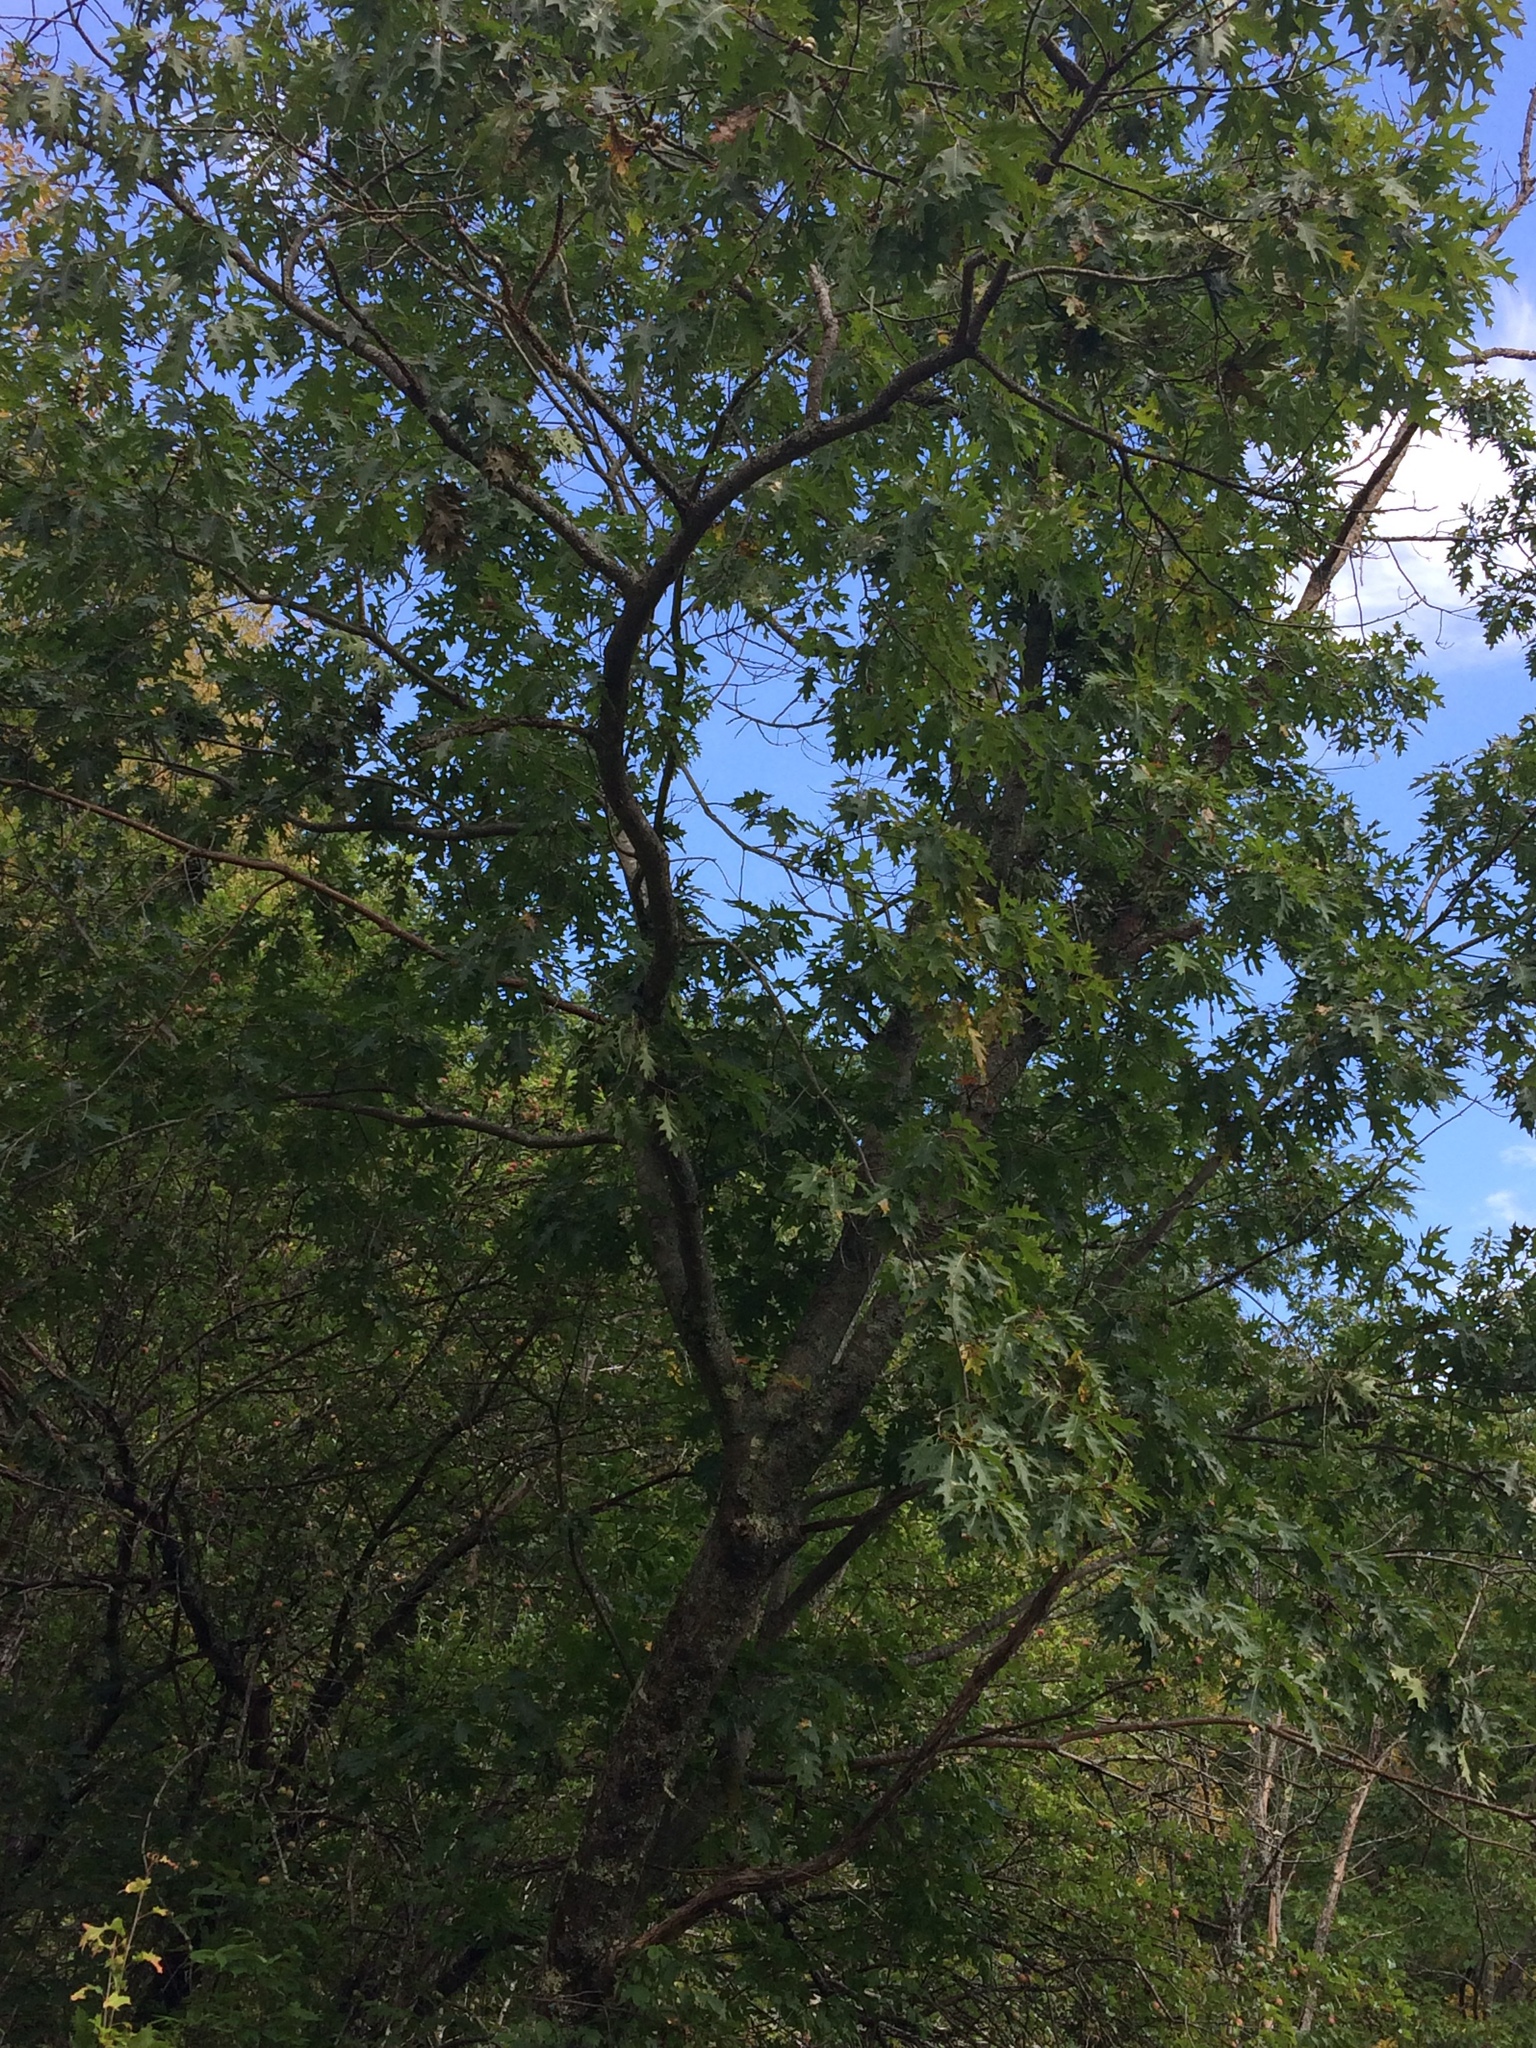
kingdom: Plantae
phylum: Tracheophyta
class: Magnoliopsida
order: Fagales
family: Fagaceae
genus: Quercus
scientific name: Quercus rubra
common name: Red oak
